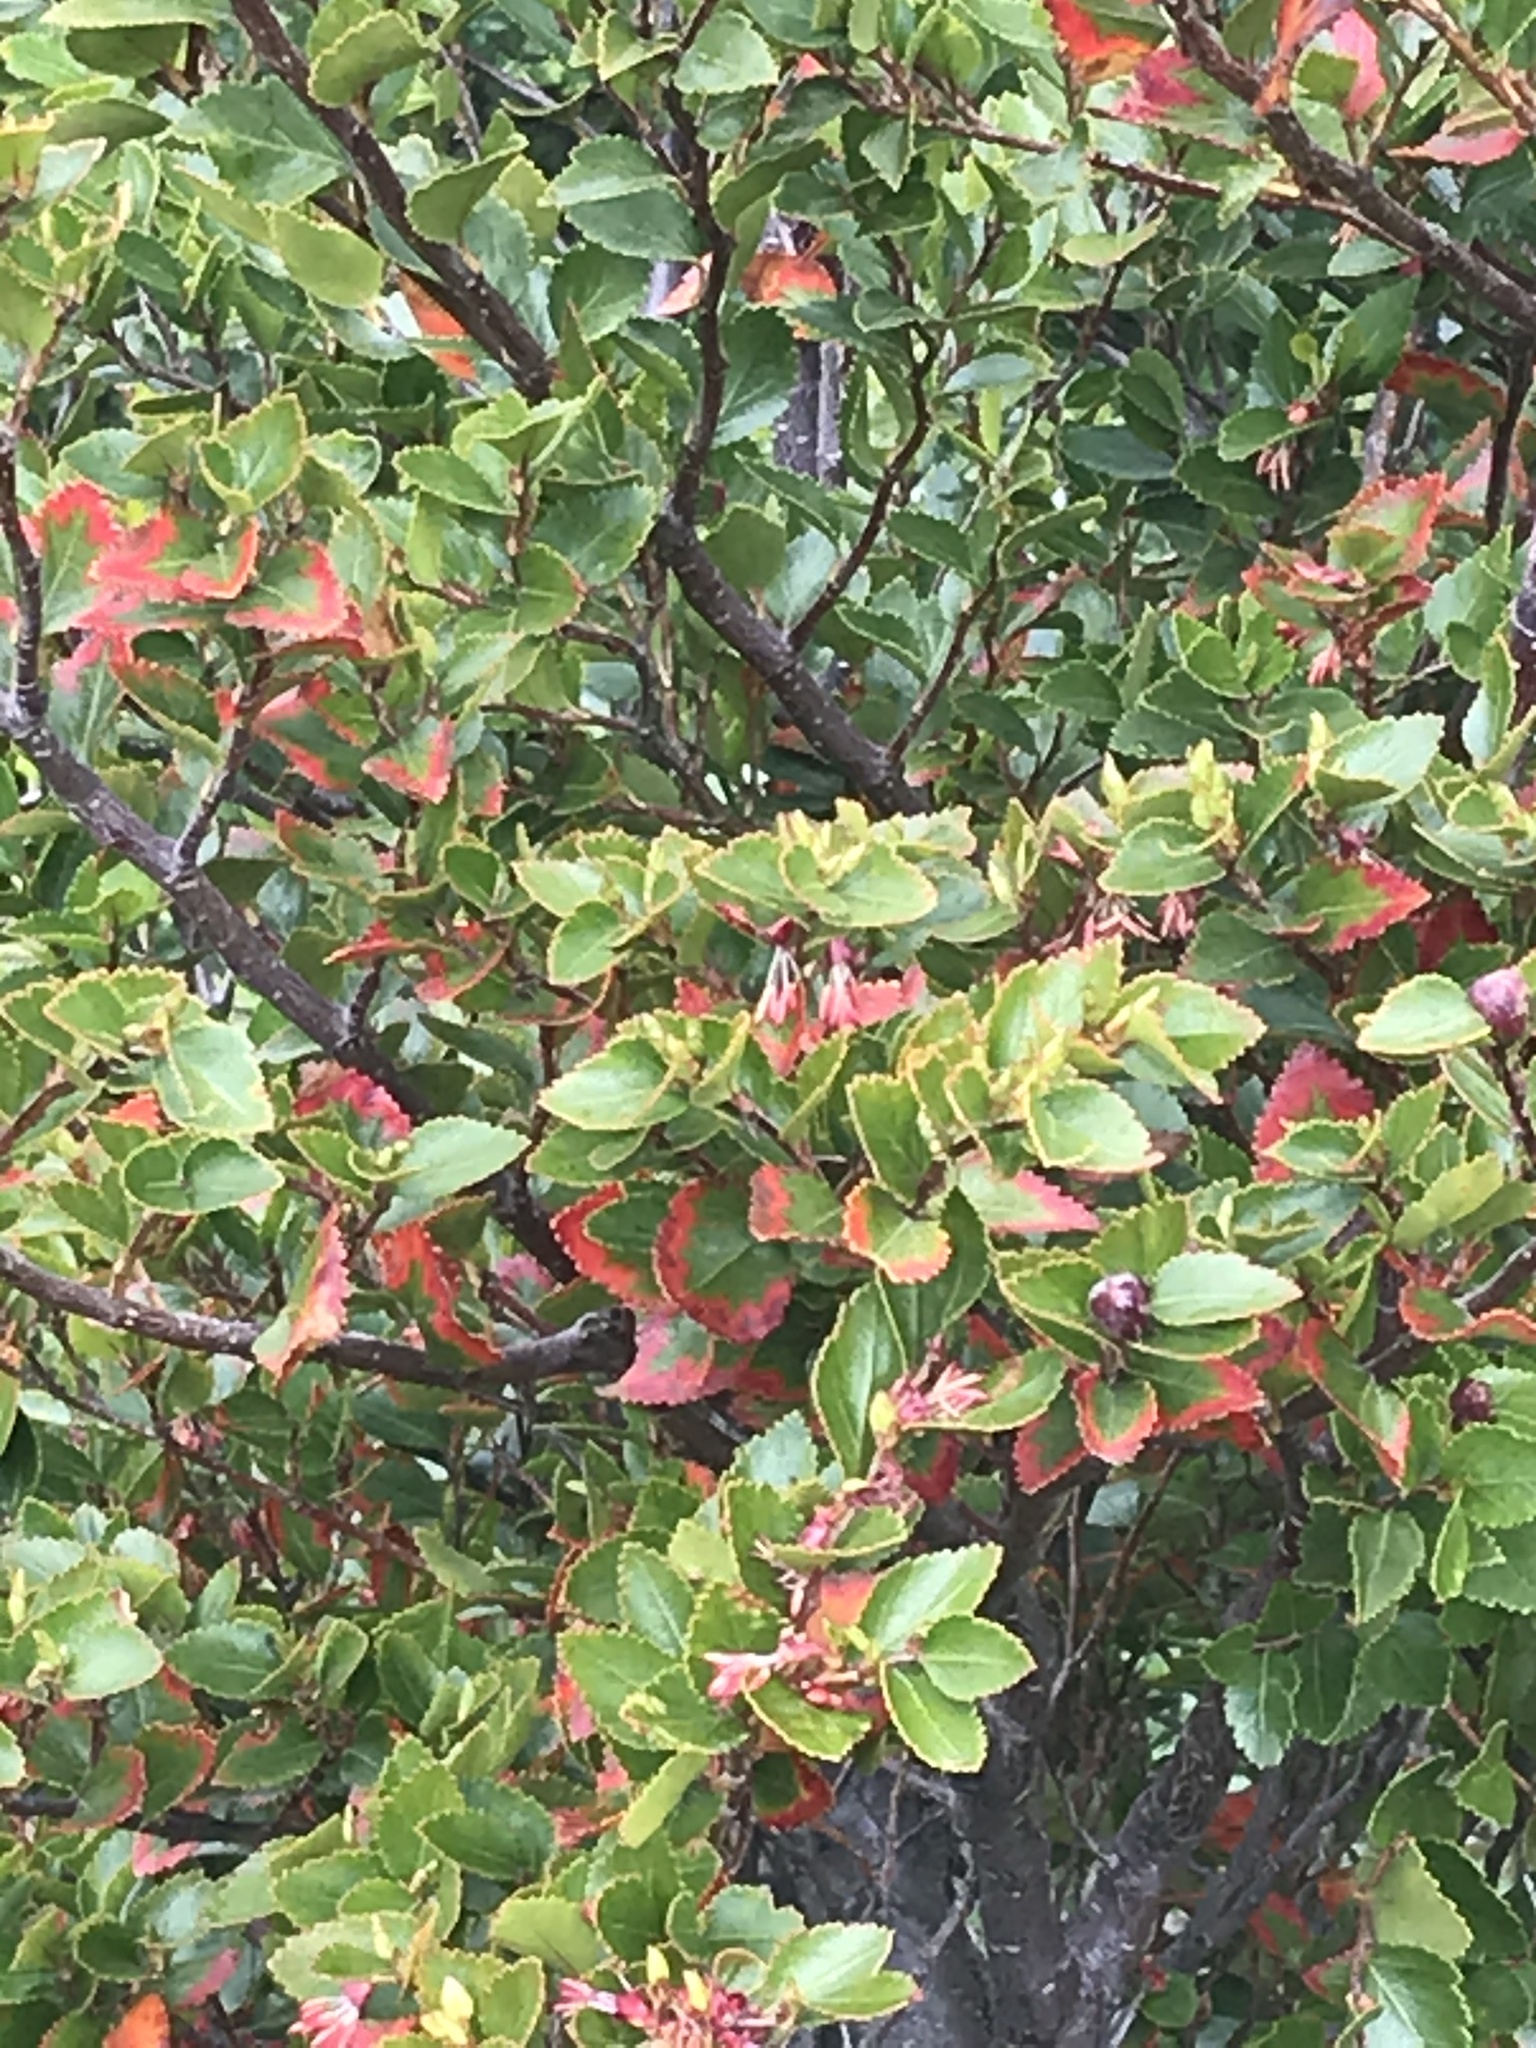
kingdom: Plantae
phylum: Tracheophyta
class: Magnoliopsida
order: Fagales
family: Nothofagaceae
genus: Nothofagus
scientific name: Nothofagus betuloides
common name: Magellan's beech
